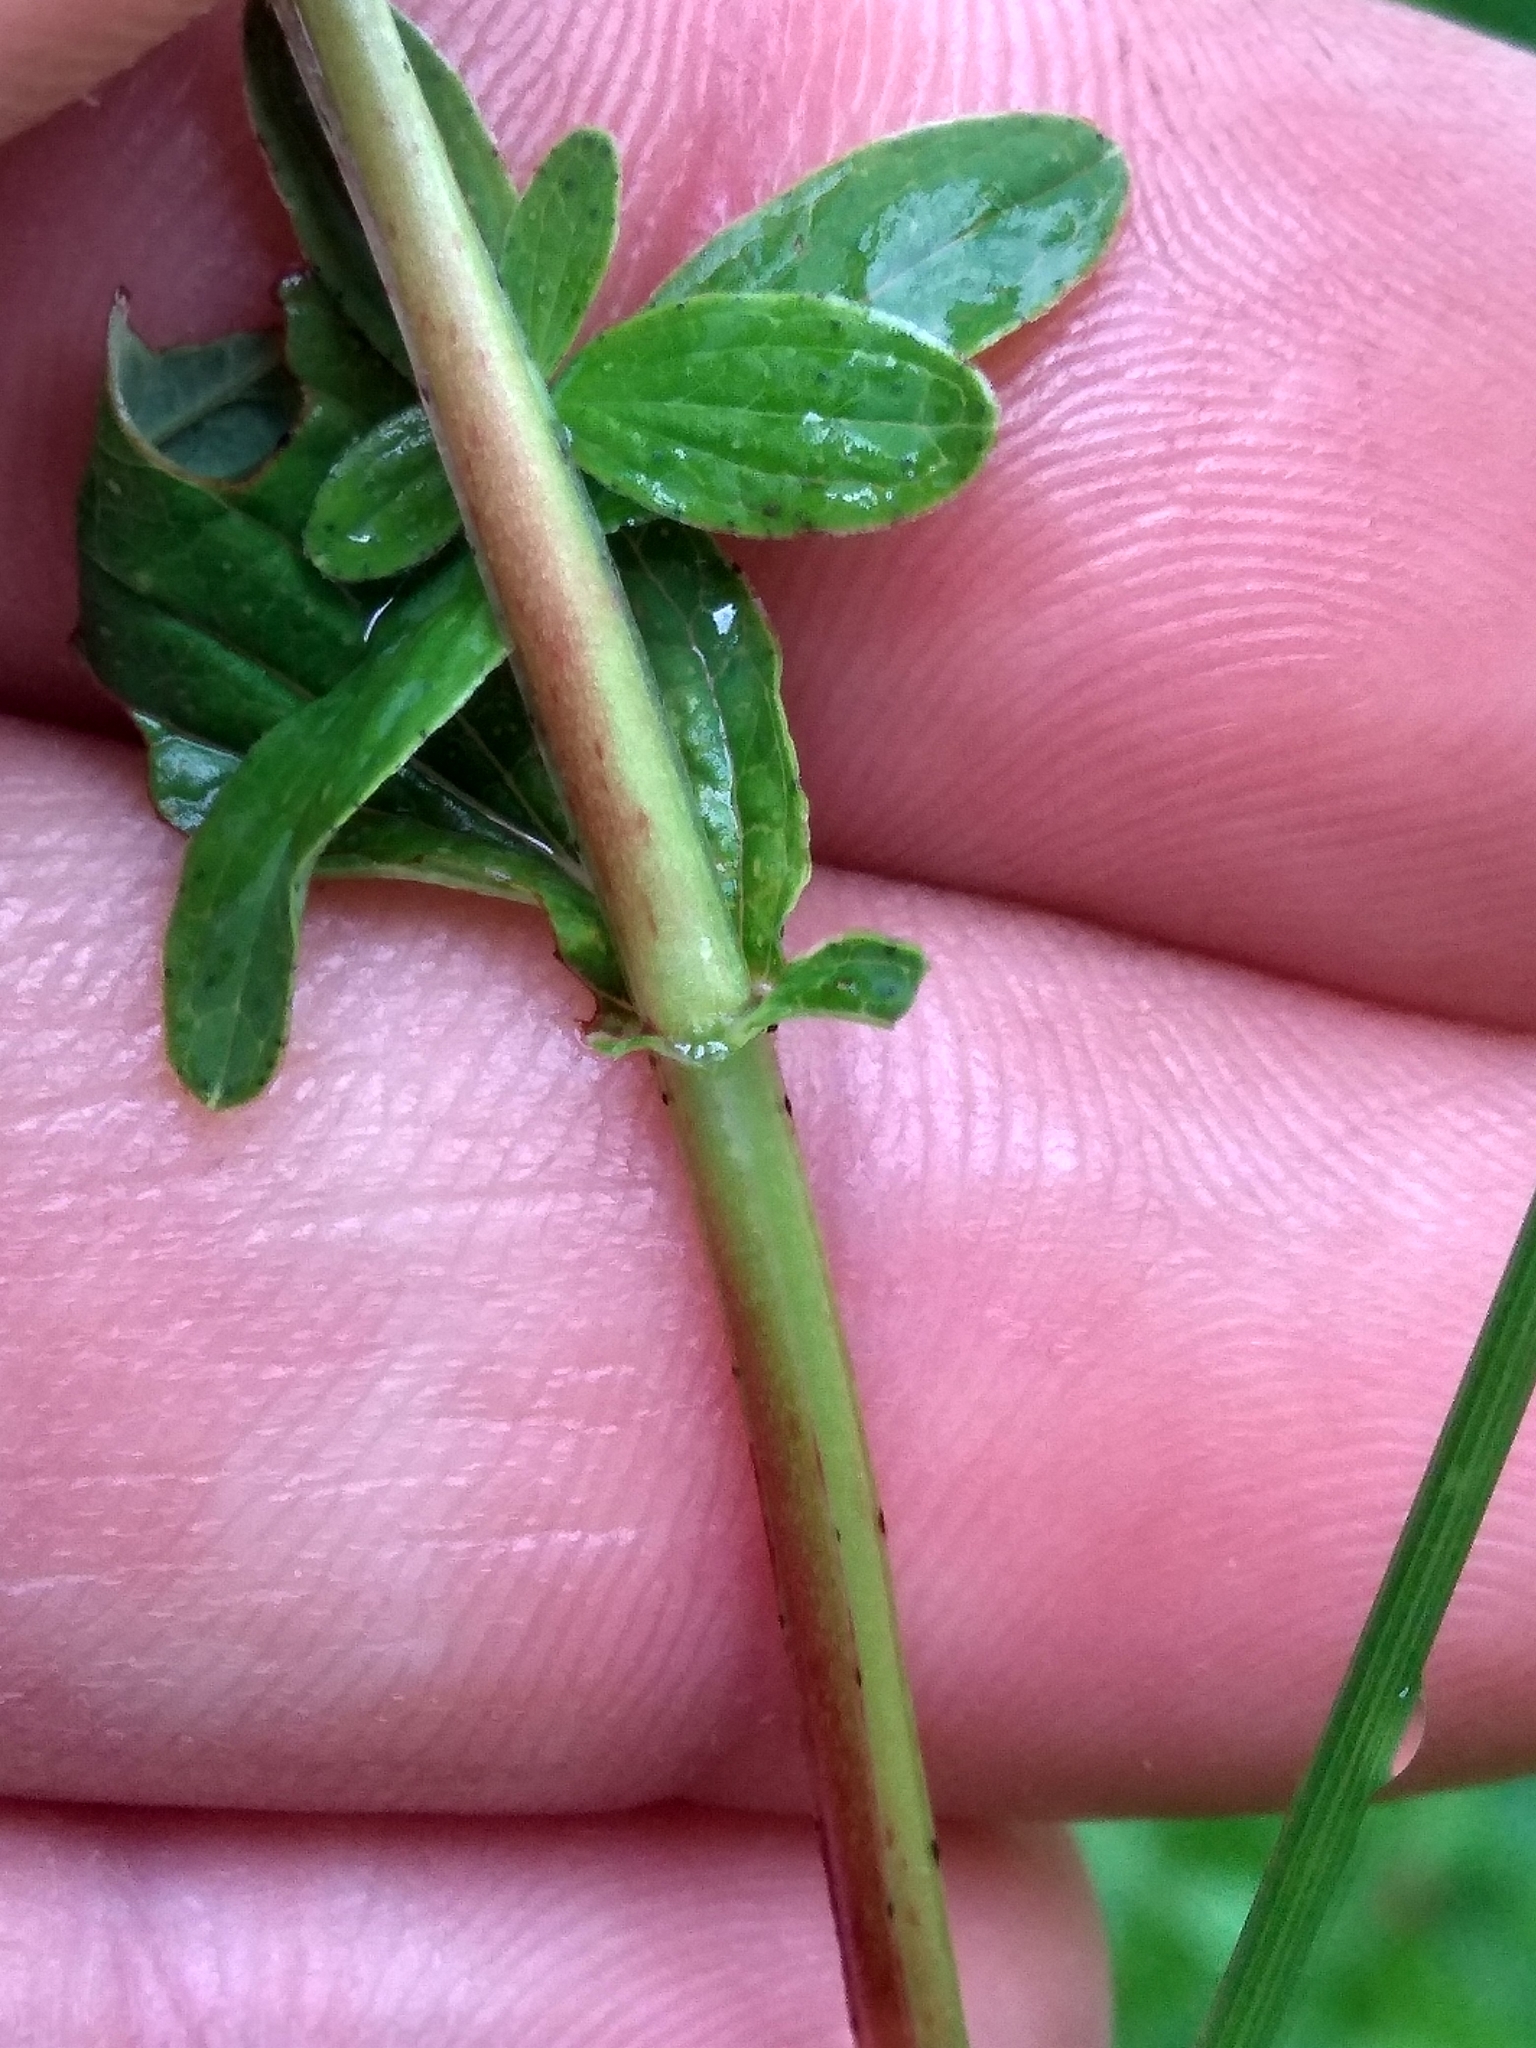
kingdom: Plantae
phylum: Tracheophyta
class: Magnoliopsida
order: Malpighiales
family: Hypericaceae
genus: Hypericum
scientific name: Hypericum maculatum
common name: Imperforate st. john's-wort
